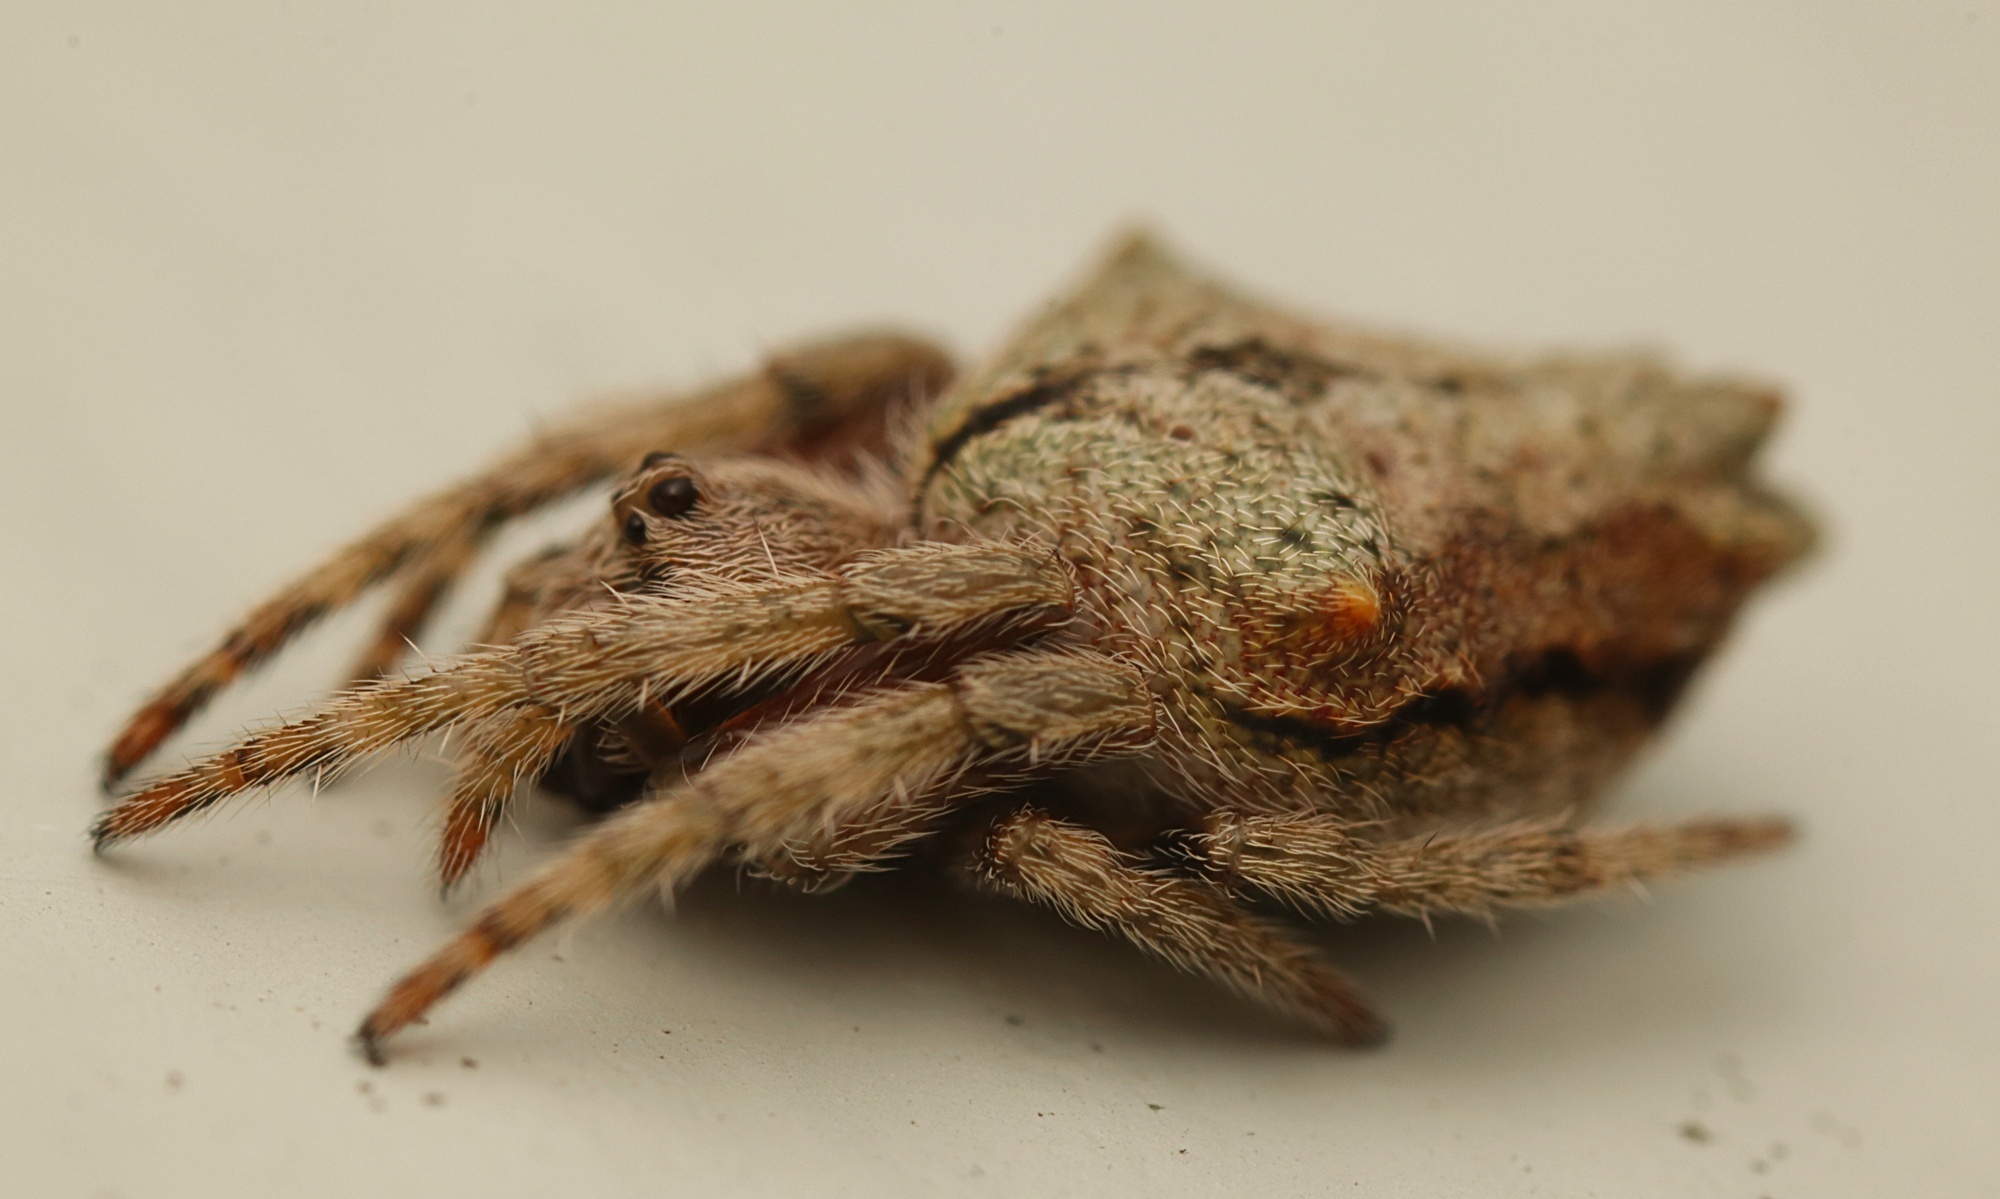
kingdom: Animalia
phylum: Arthropoda
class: Arachnida
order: Araneae
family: Araneidae
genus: Eriophora
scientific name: Eriophora pustulosa
